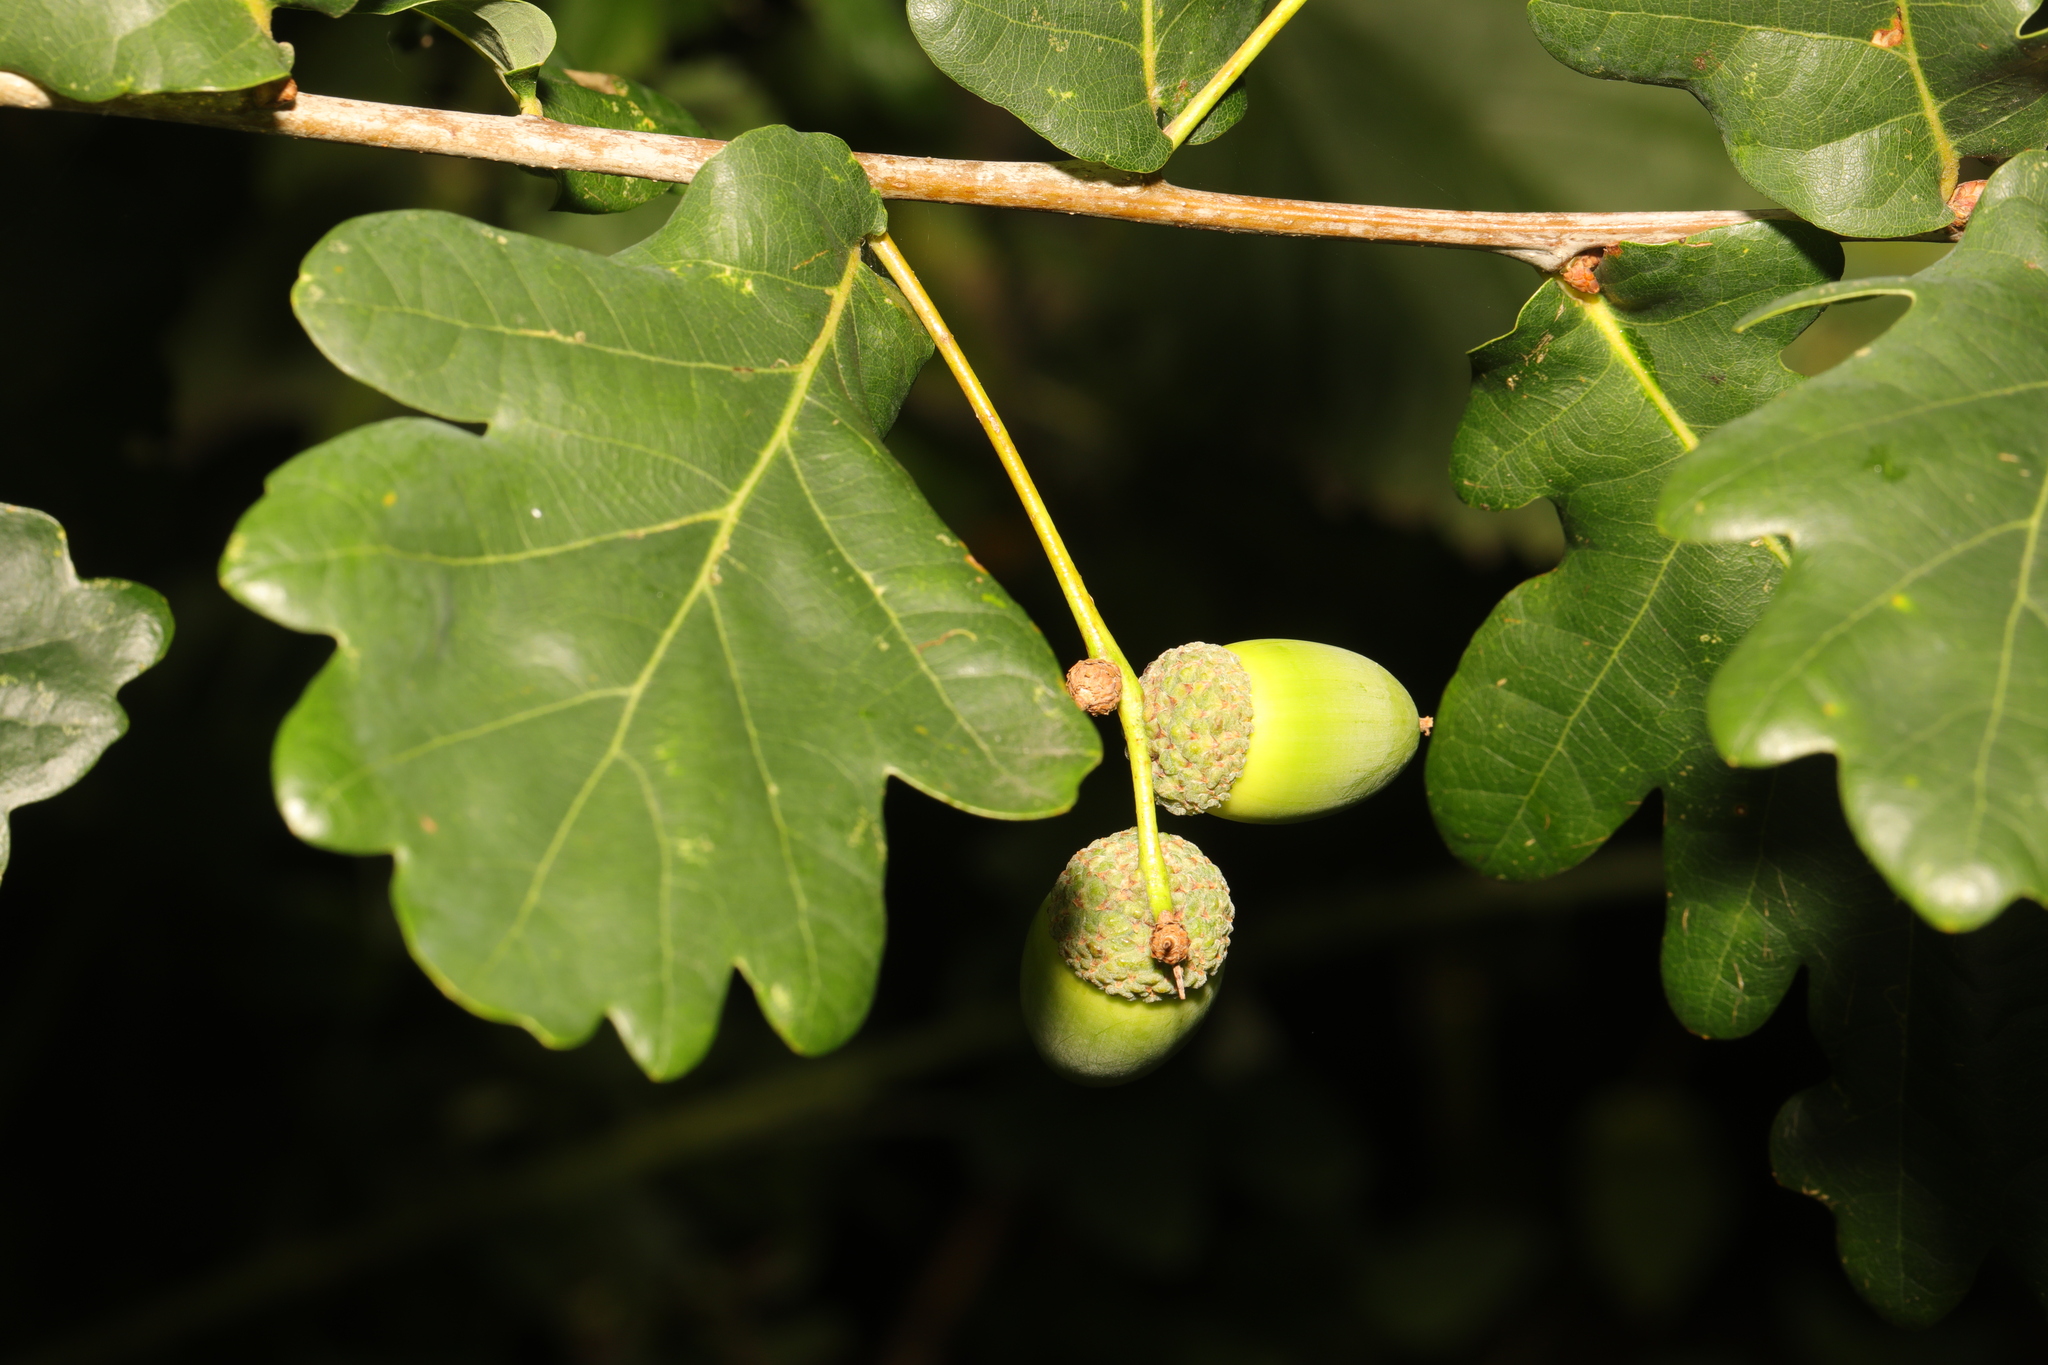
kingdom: Plantae
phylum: Tracheophyta
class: Magnoliopsida
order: Fagales
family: Fagaceae
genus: Quercus
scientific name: Quercus robur
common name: Pedunculate oak
